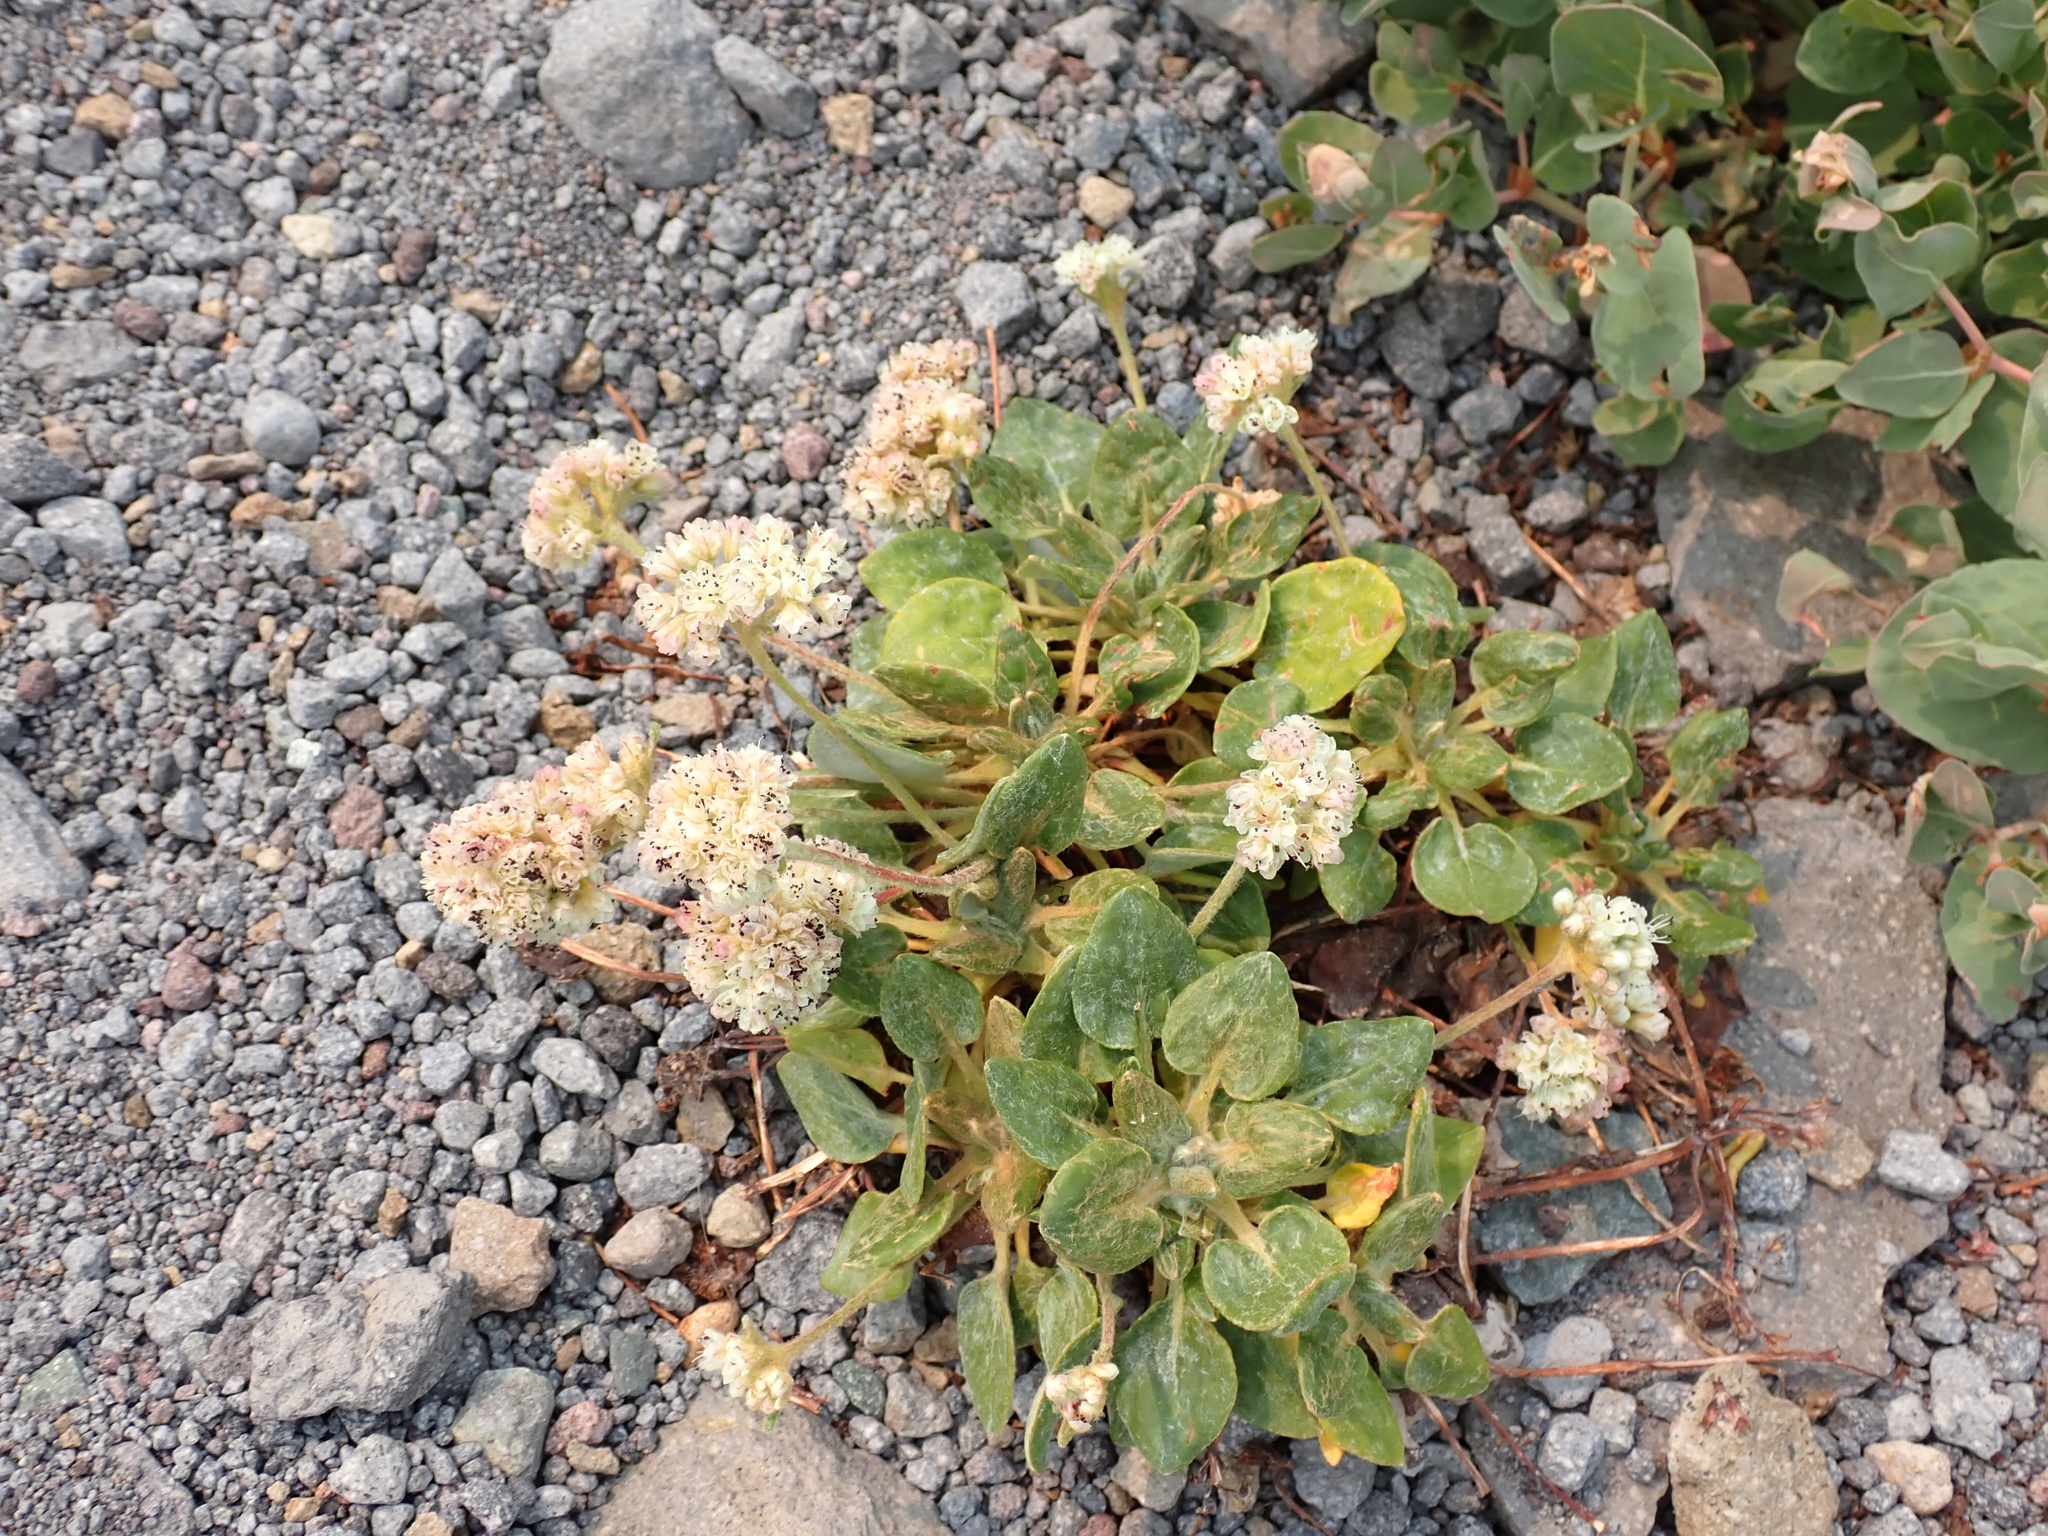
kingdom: Plantae
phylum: Tracheophyta
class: Magnoliopsida
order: Caryophyllales
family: Polygonaceae
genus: Eriogonum
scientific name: Eriogonum pyrolifolium
